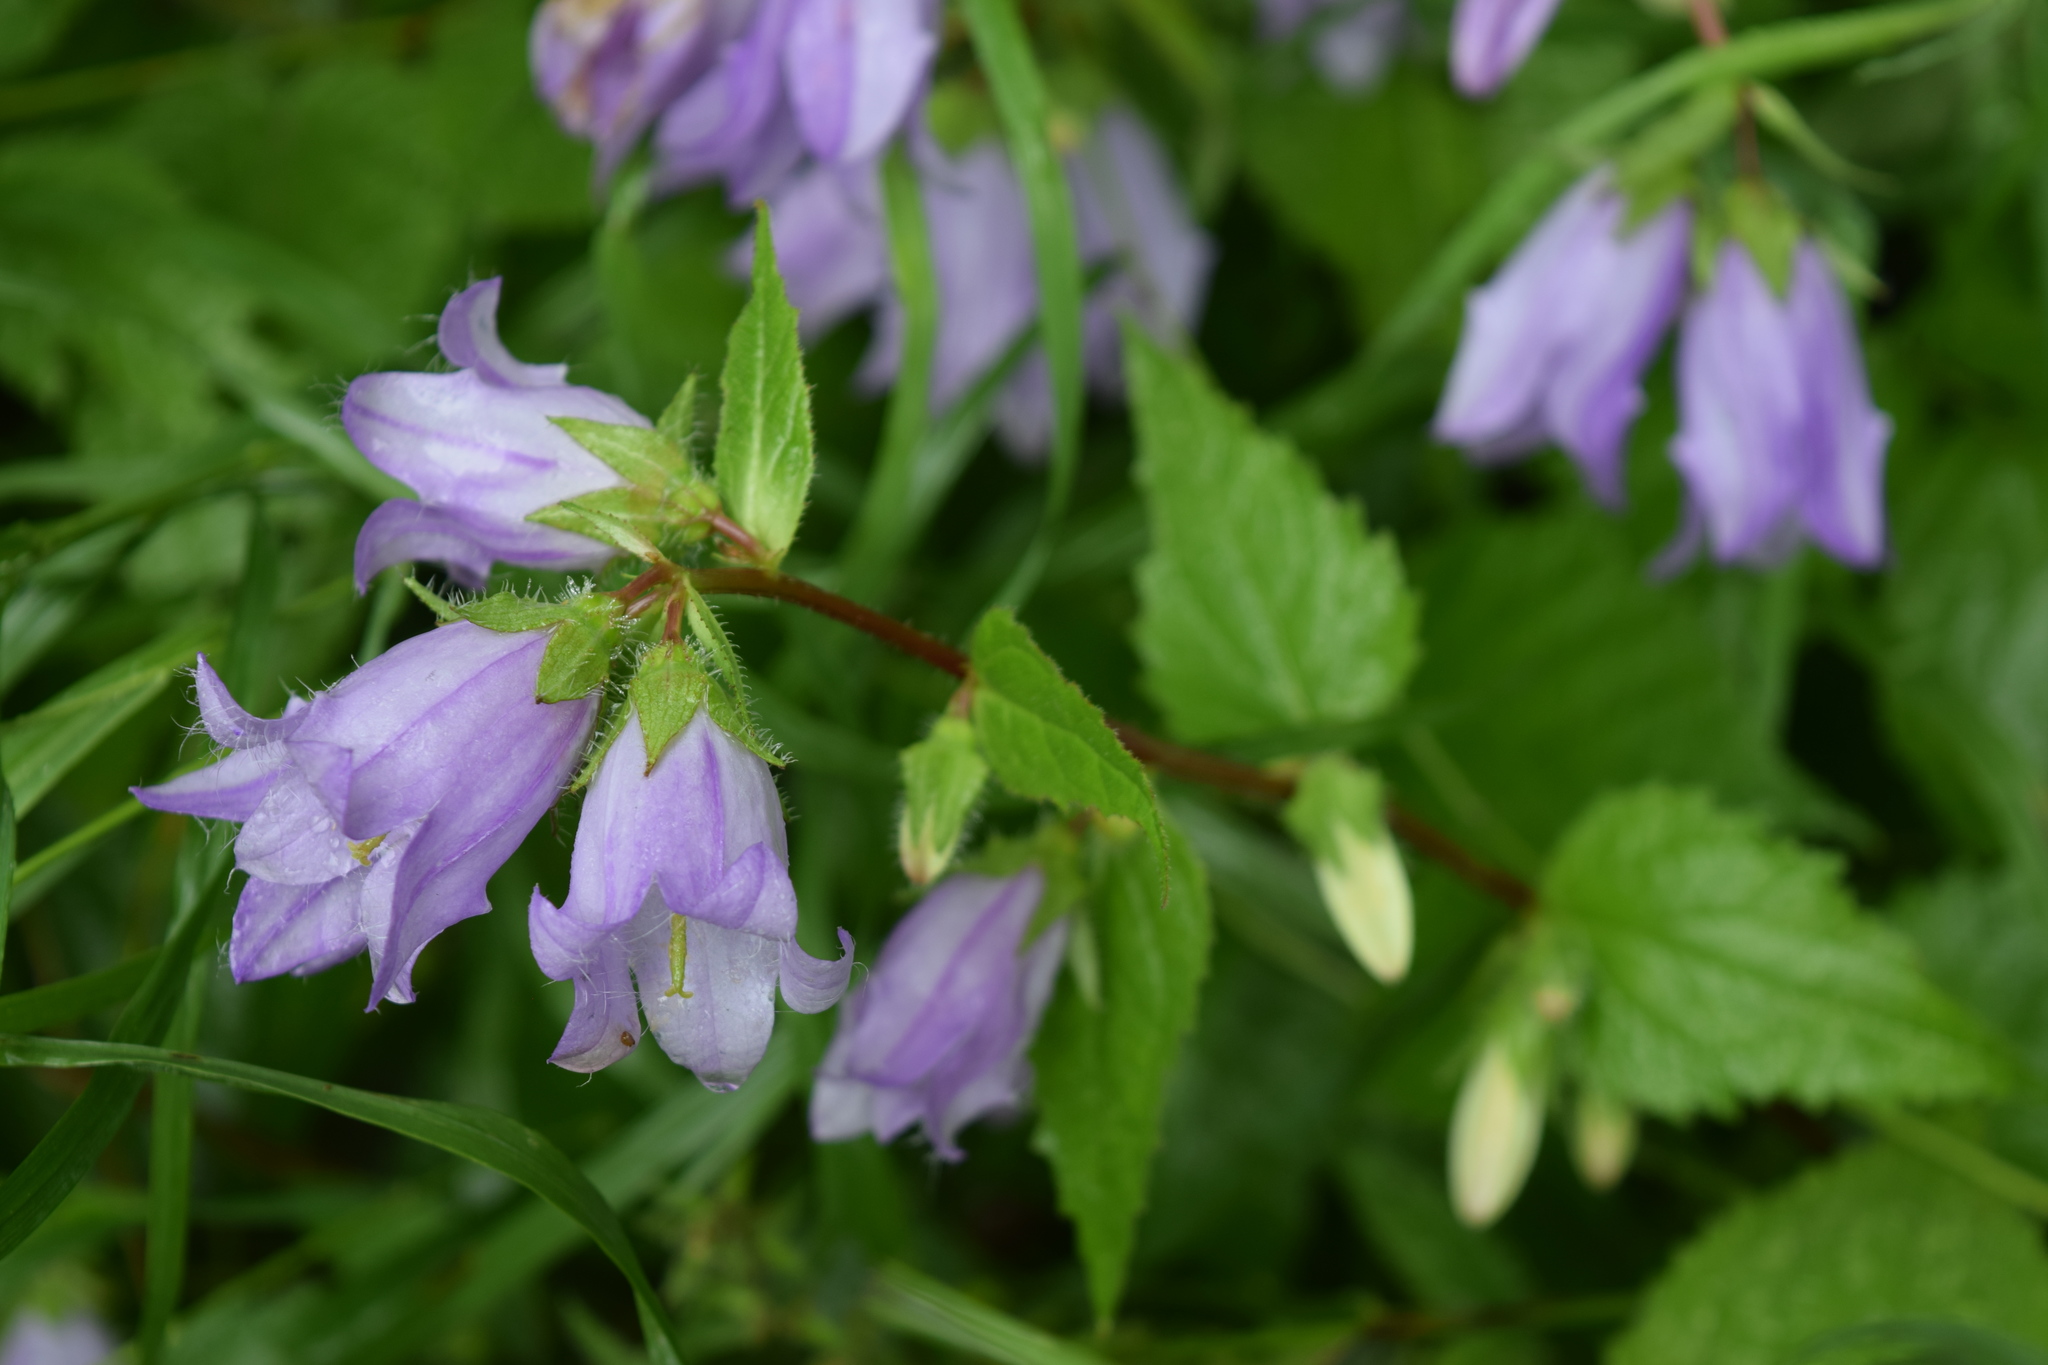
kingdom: Plantae
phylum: Tracheophyta
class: Magnoliopsida
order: Asterales
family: Campanulaceae
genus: Campanula
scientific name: Campanula trachelium
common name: Nettle-leaved bellflower
